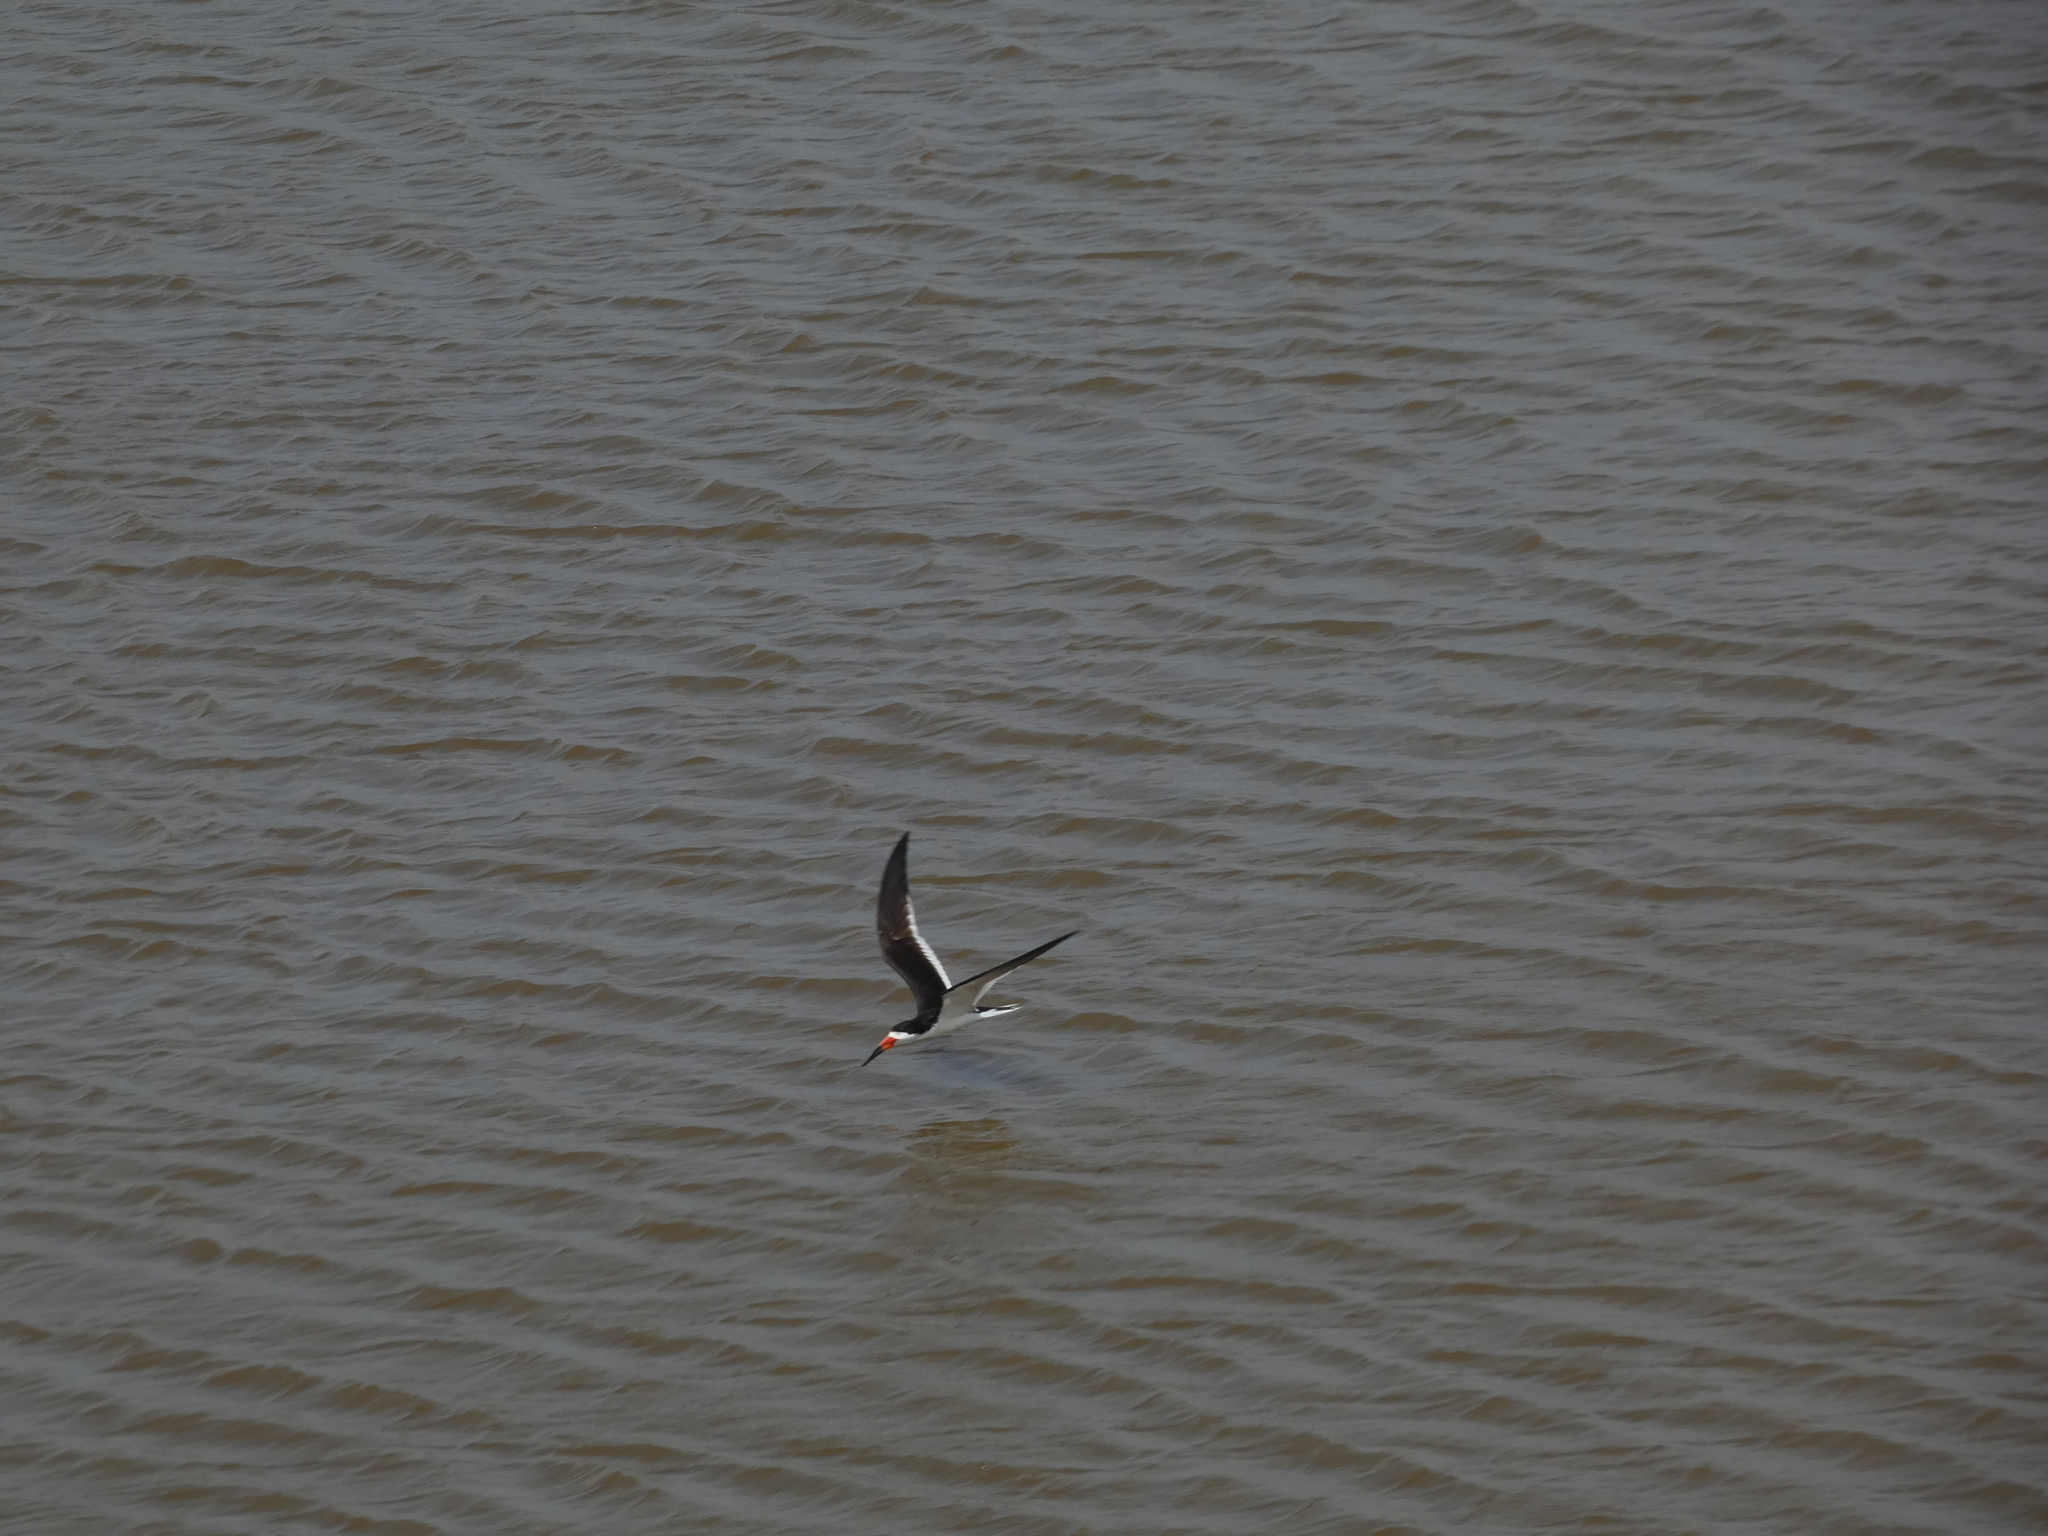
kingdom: Animalia
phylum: Chordata
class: Aves
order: Charadriiformes
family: Laridae
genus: Rynchops
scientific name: Rynchops niger
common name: Black skimmer
